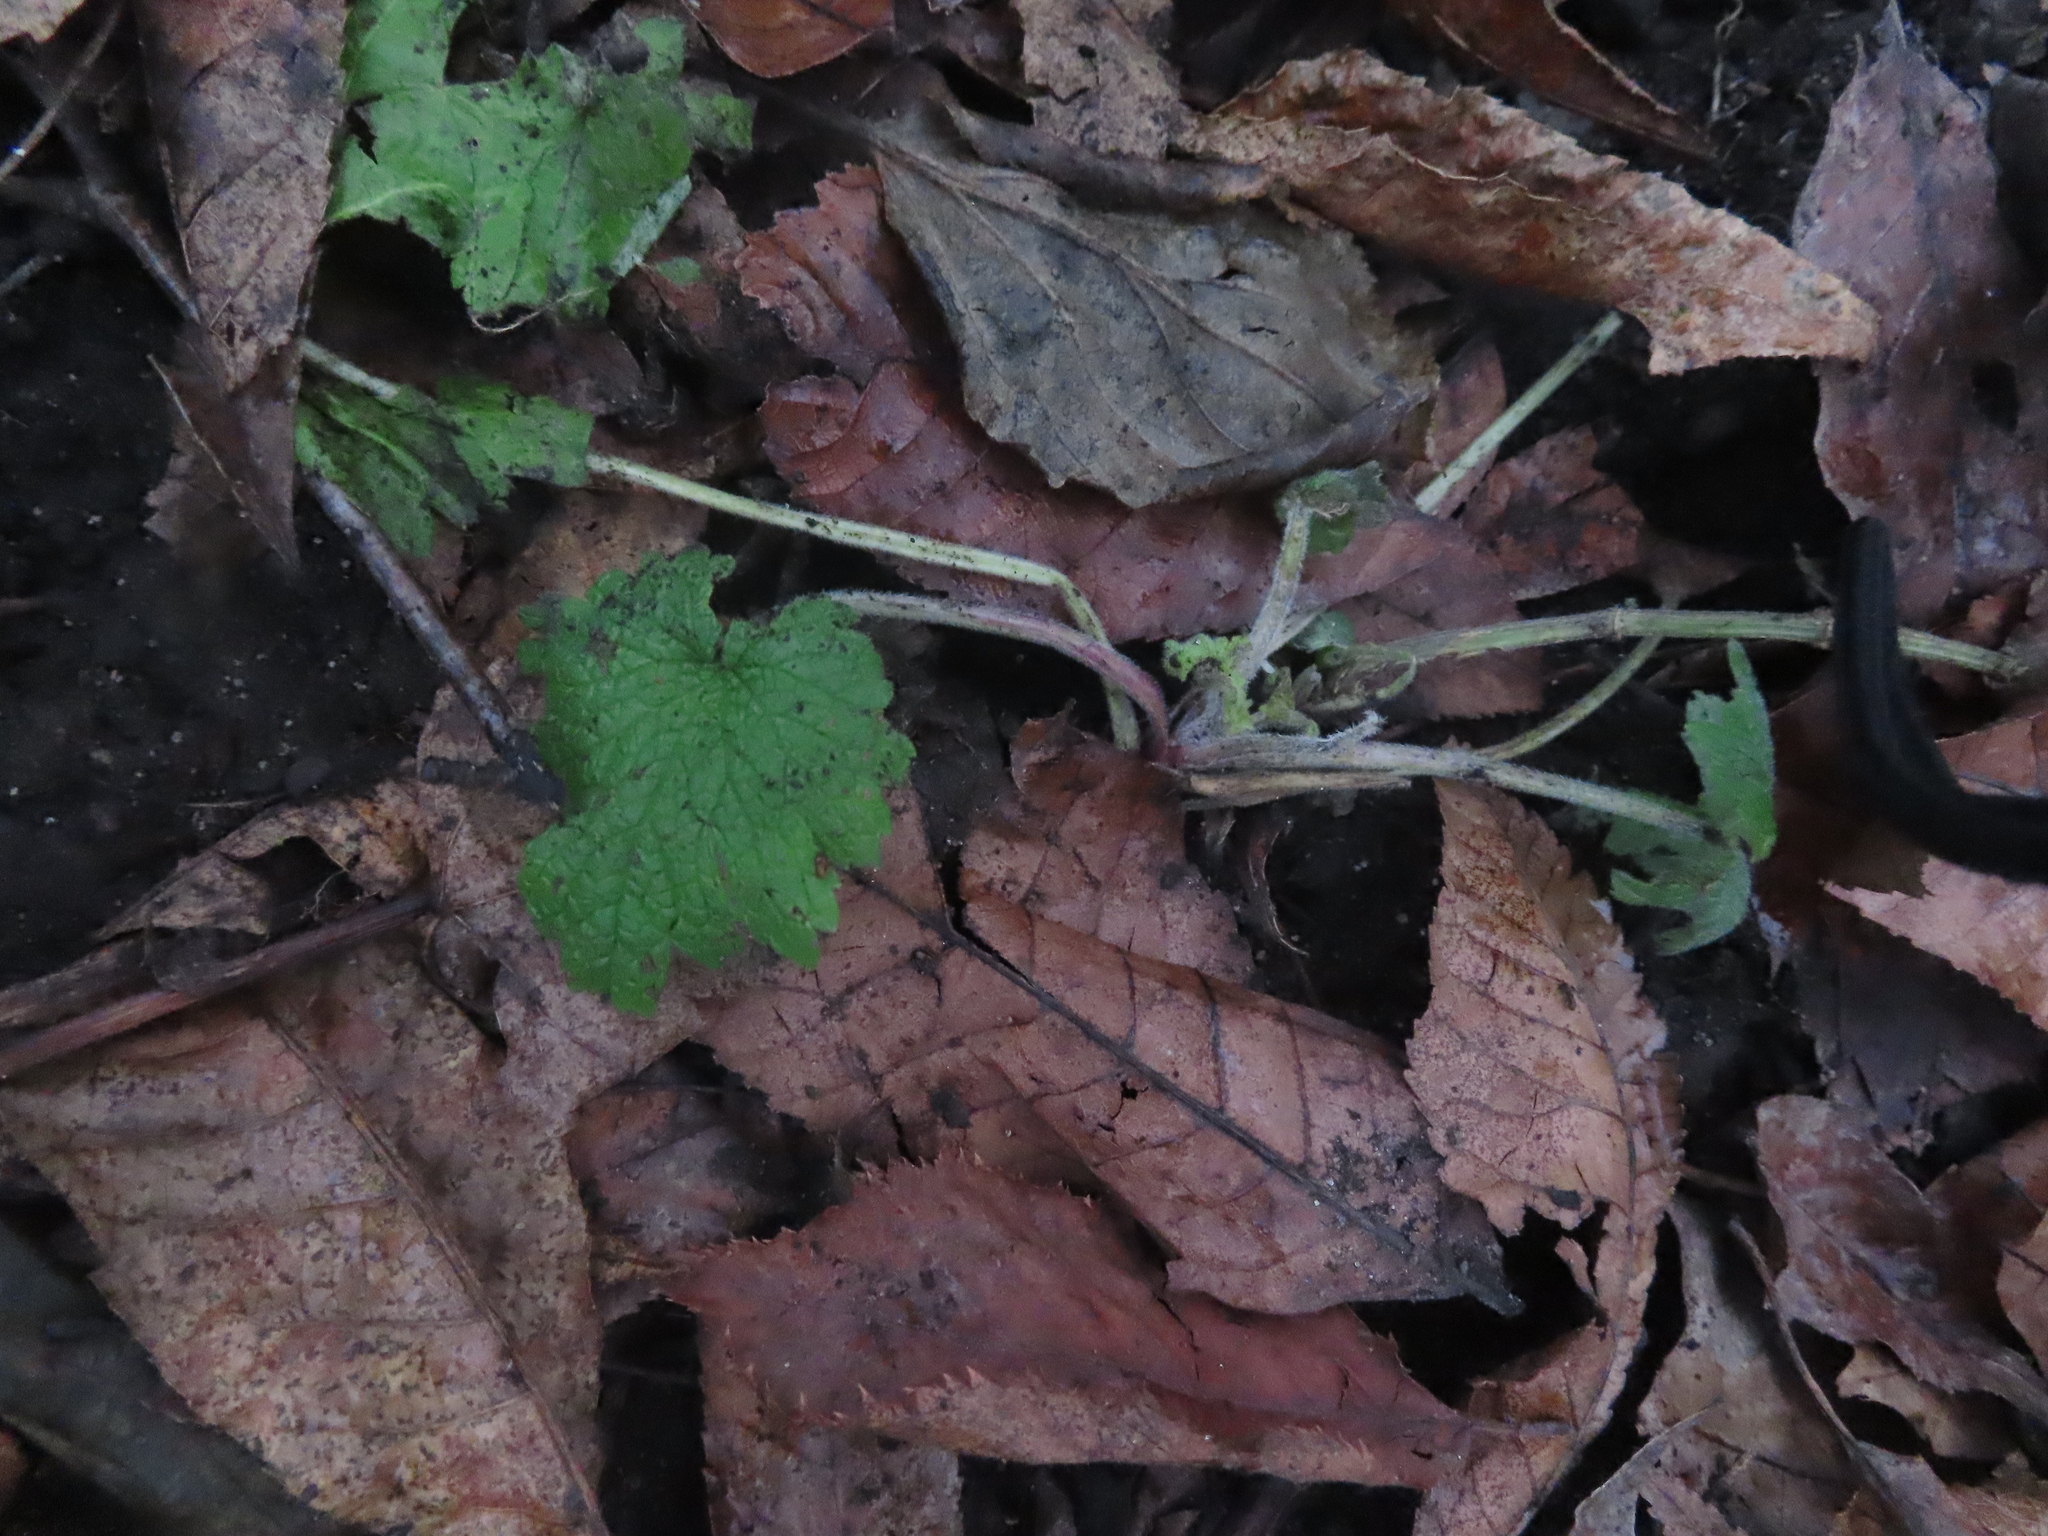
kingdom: Plantae
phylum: Tracheophyta
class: Magnoliopsida
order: Lamiales
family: Lamiaceae
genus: Leonurus
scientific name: Leonurus cardiaca
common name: Motherwort
